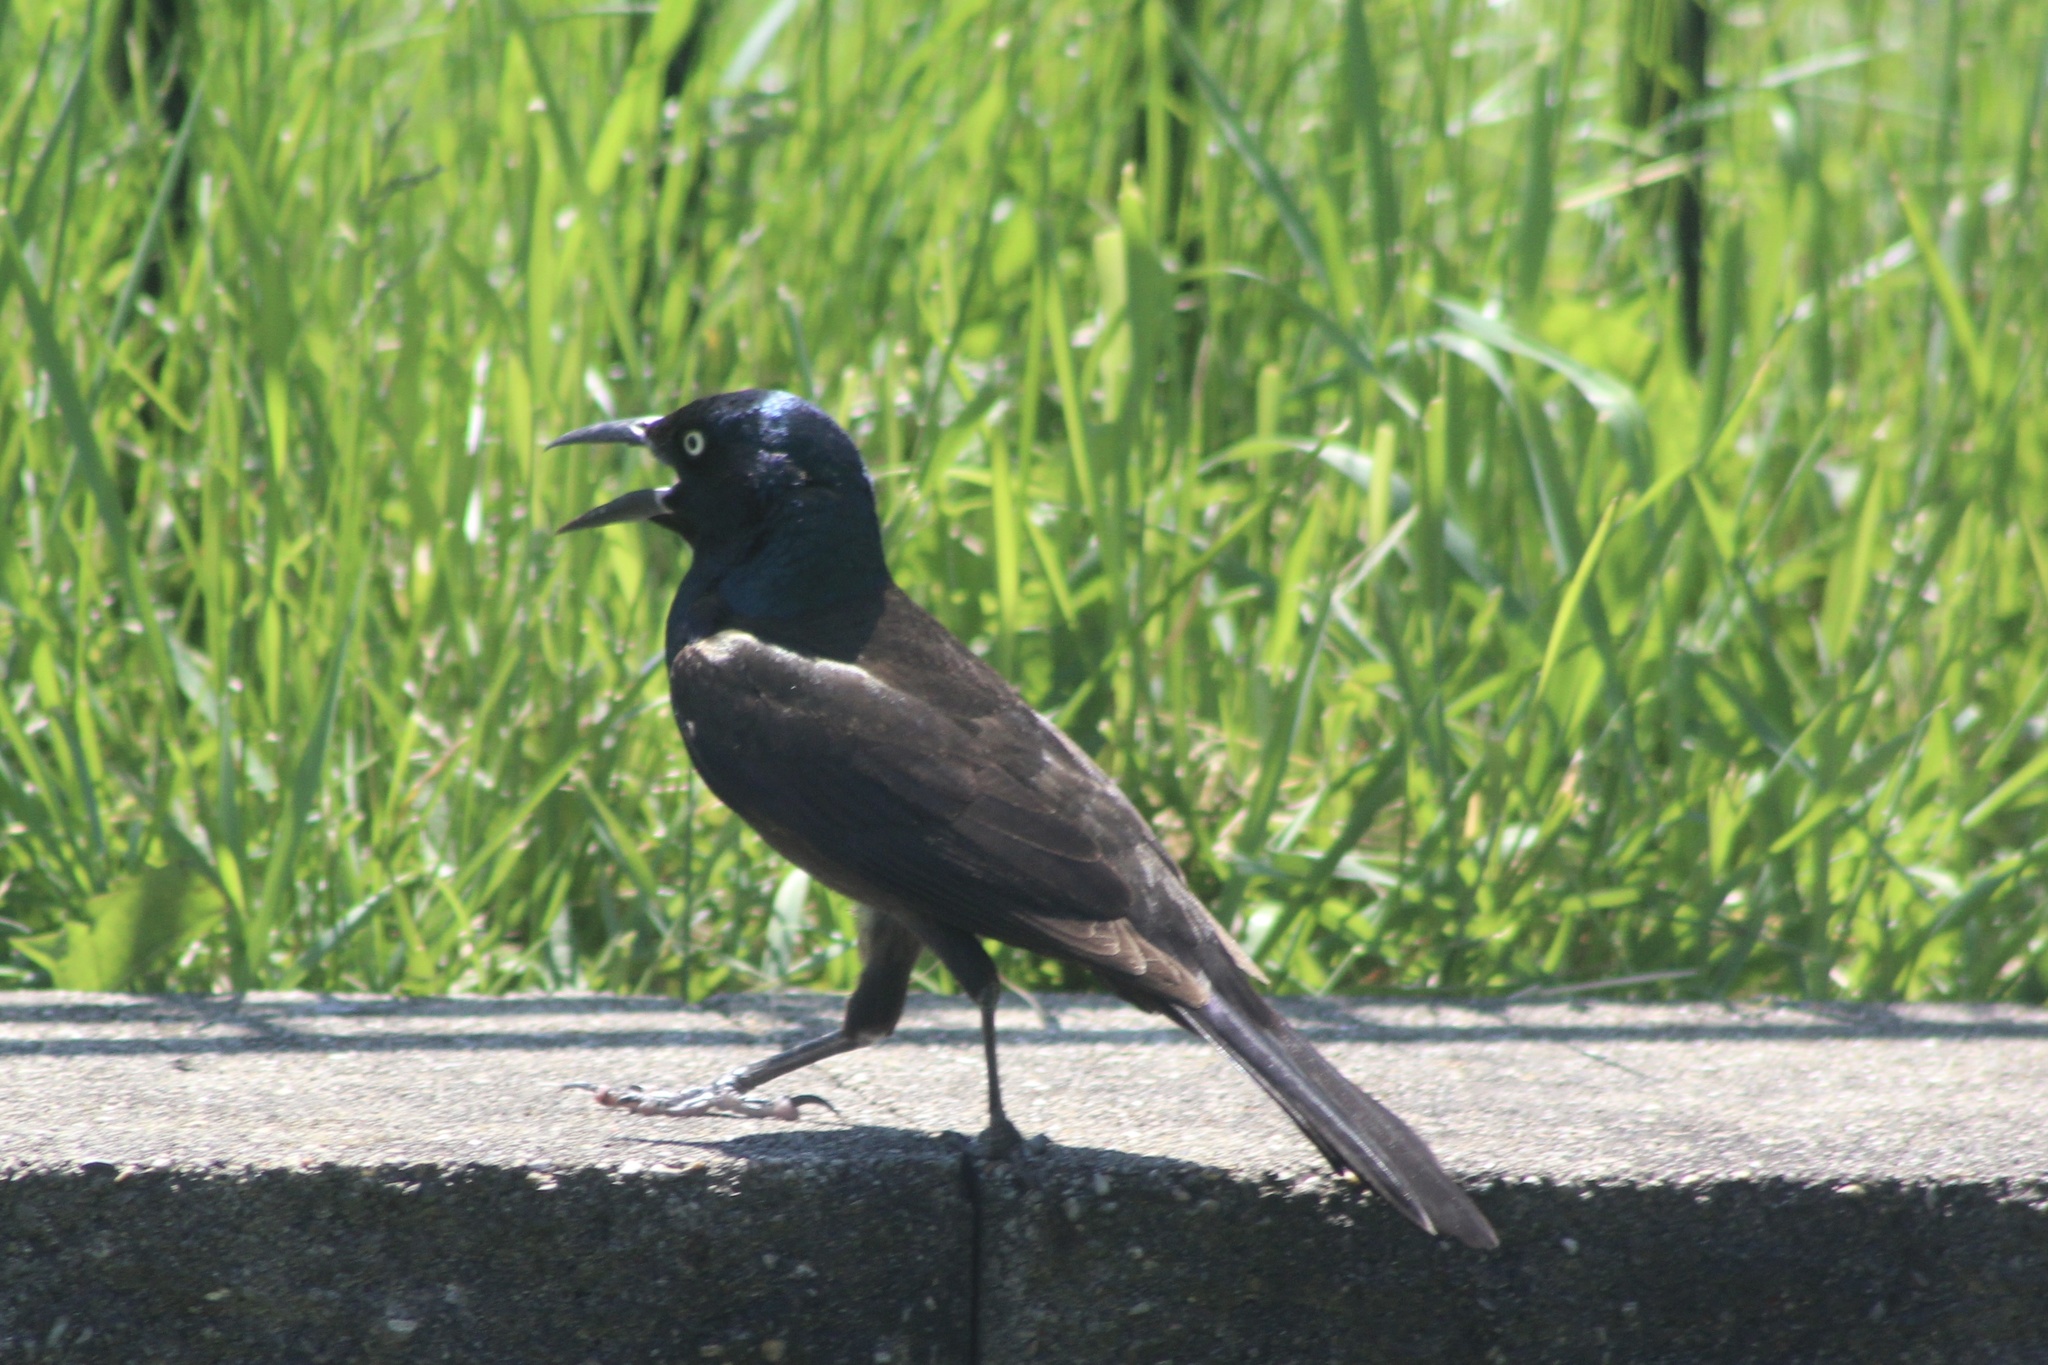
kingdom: Animalia
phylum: Chordata
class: Aves
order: Passeriformes
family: Icteridae
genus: Quiscalus
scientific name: Quiscalus quiscula
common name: Common grackle
